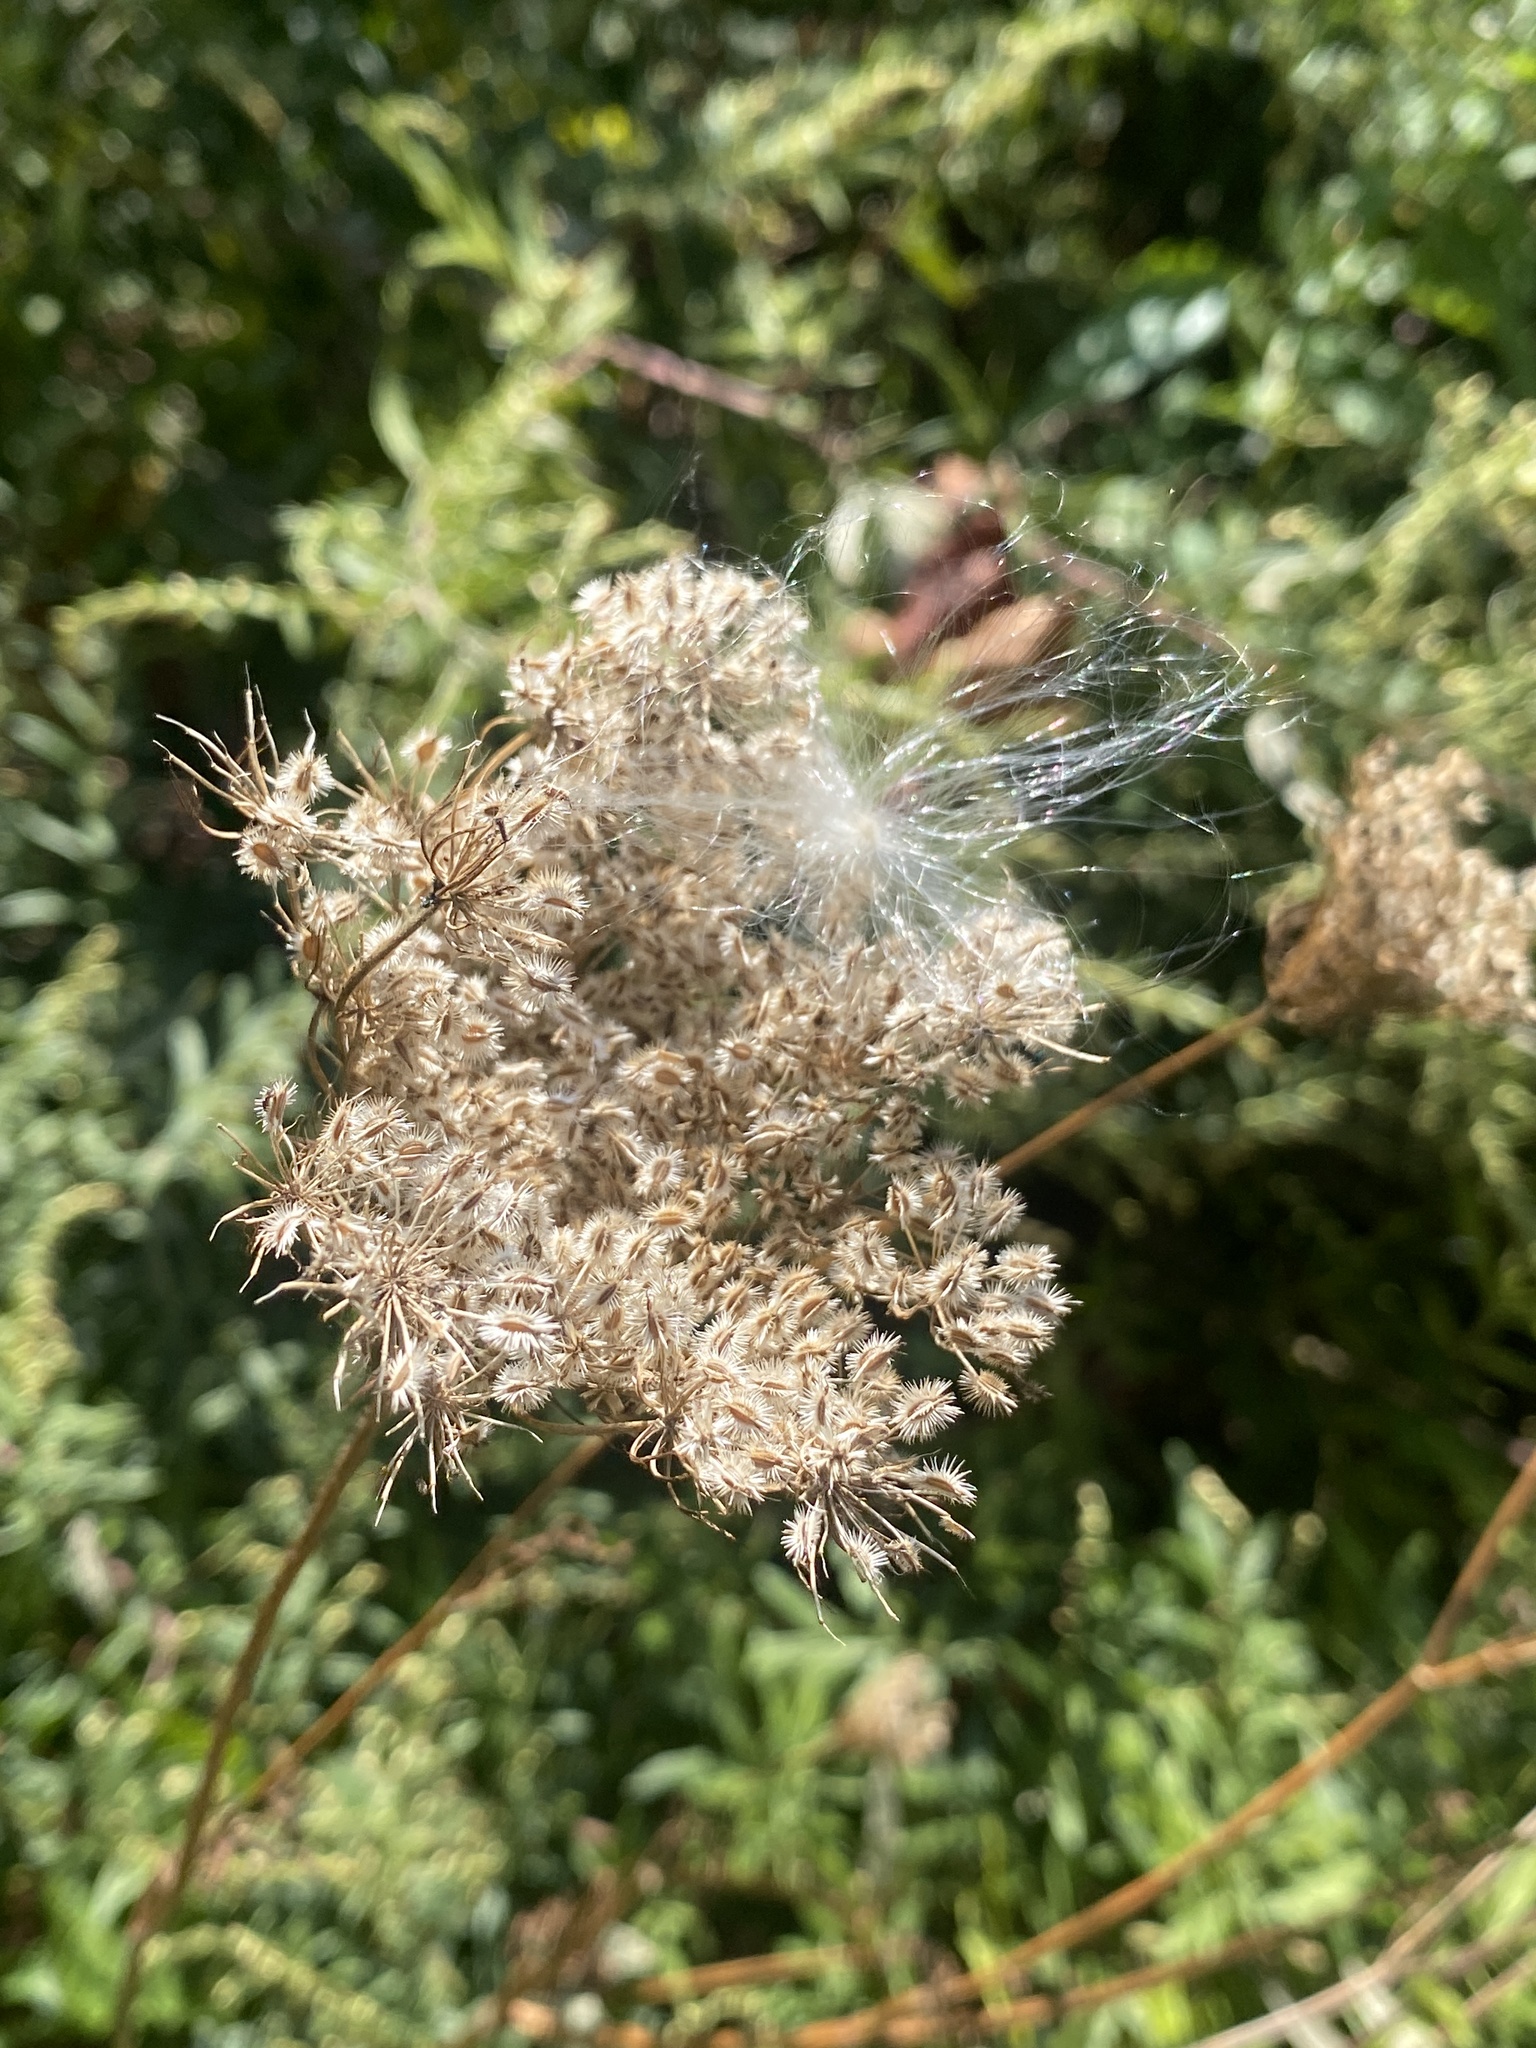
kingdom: Plantae
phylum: Tracheophyta
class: Magnoliopsida
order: Apiales
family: Apiaceae
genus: Daucus
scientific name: Daucus carota
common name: Wild carrot
